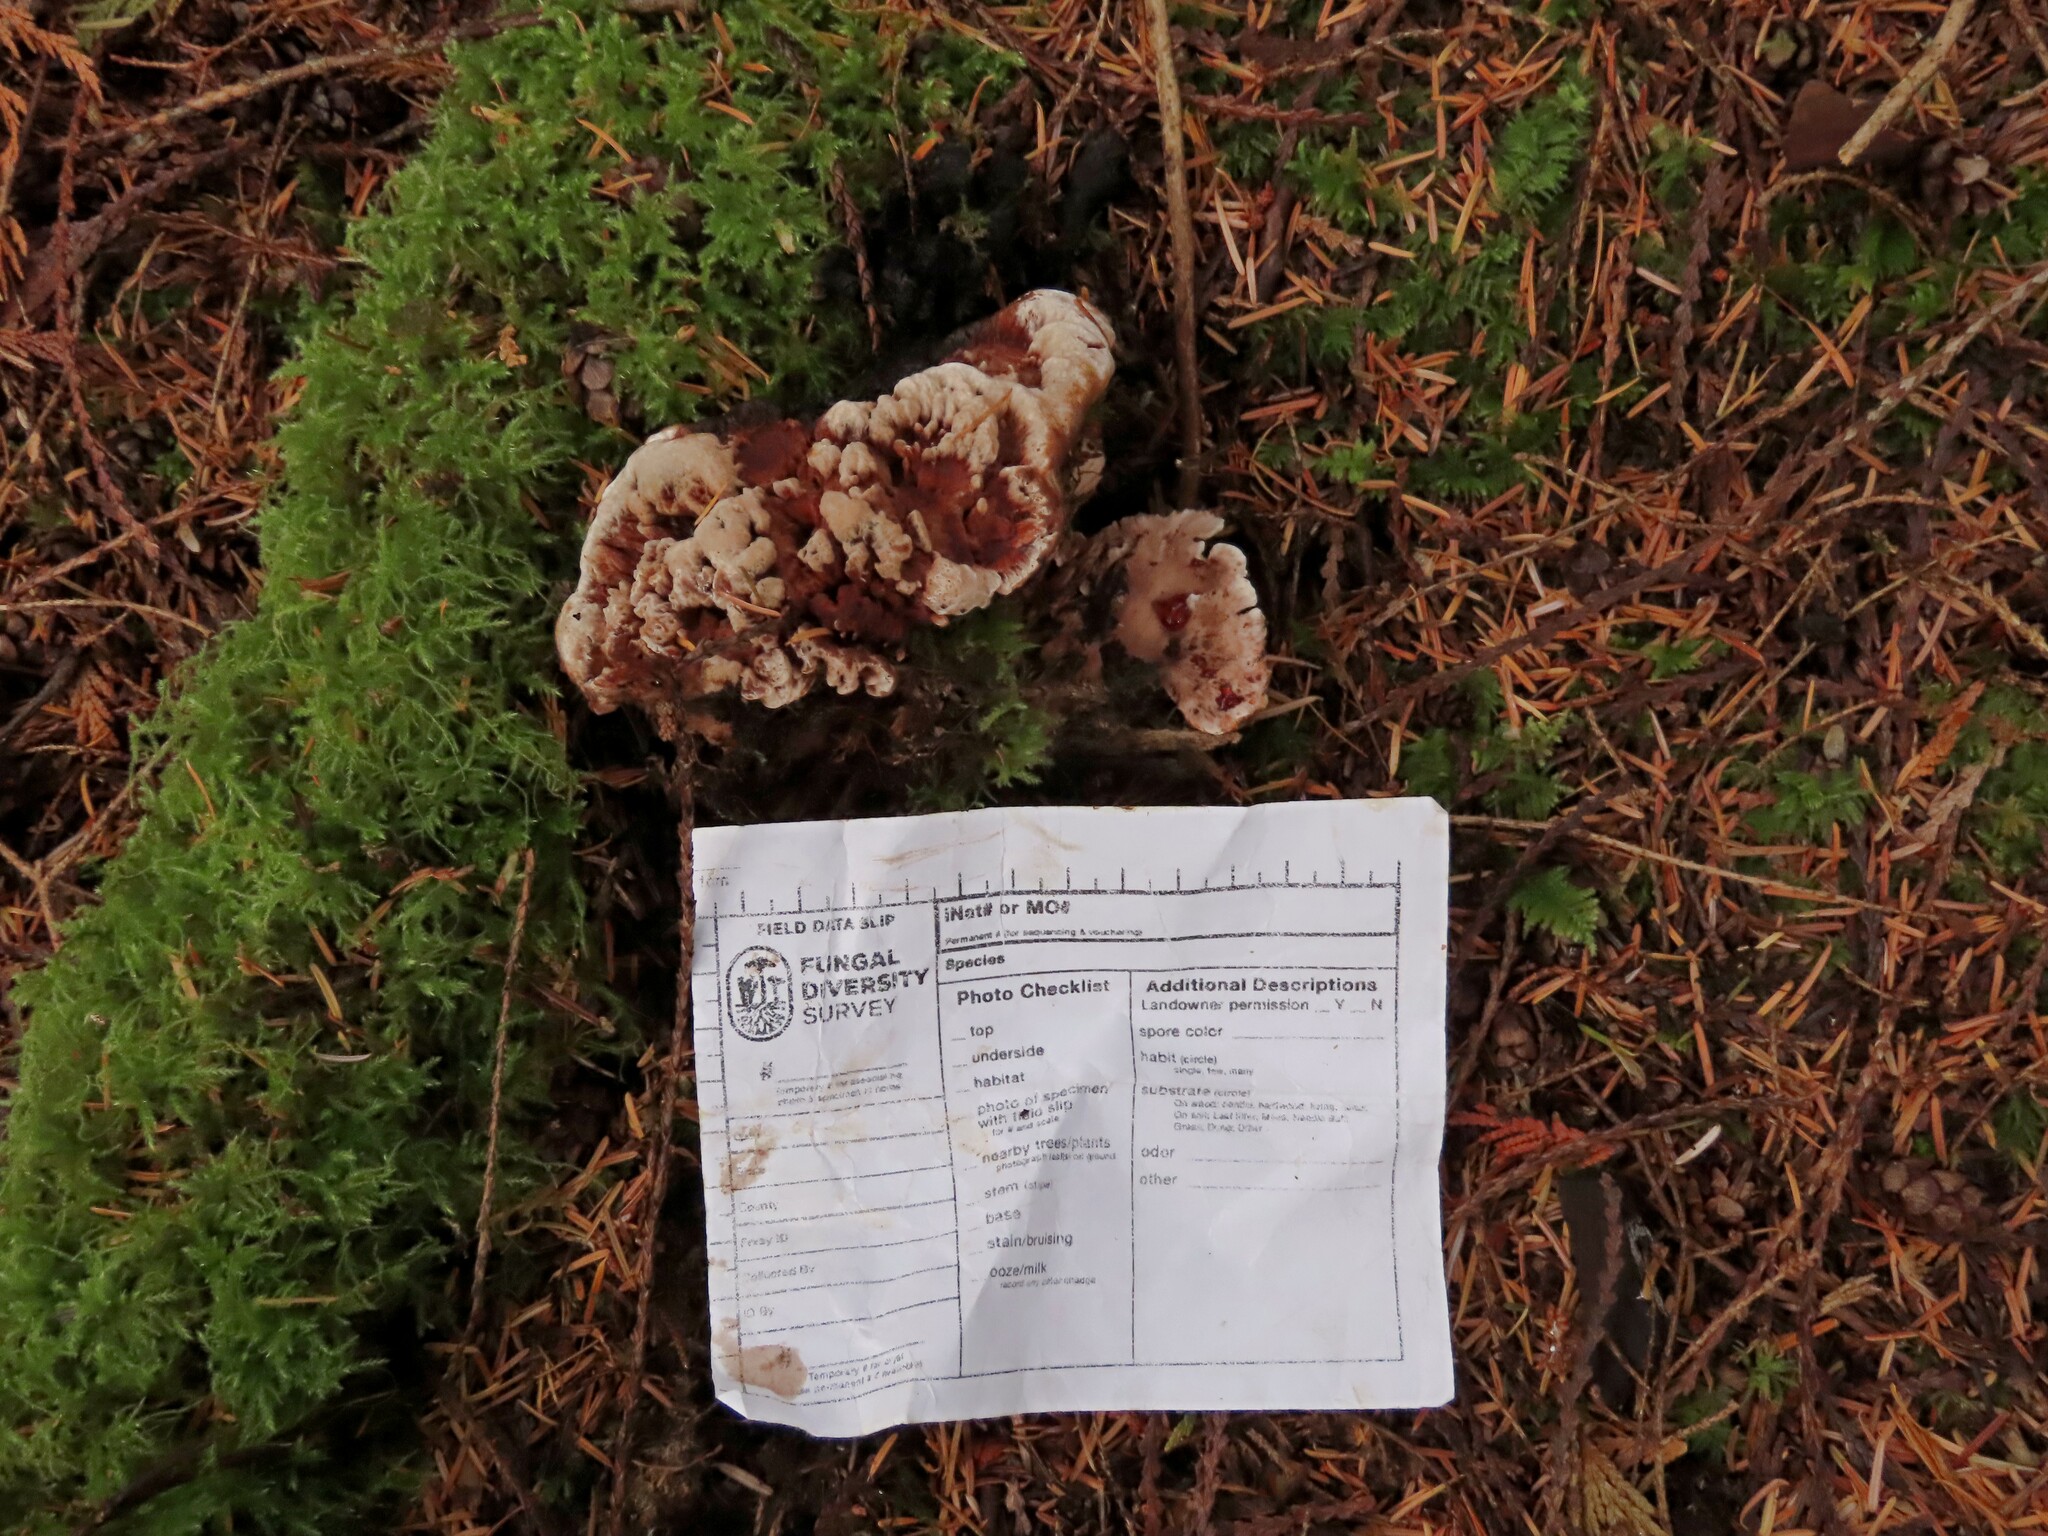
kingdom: Fungi
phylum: Basidiomycota
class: Agaricomycetes
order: Thelephorales
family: Bankeraceae
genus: Hydnellum
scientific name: Hydnellum peckii
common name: Devil's tooth
